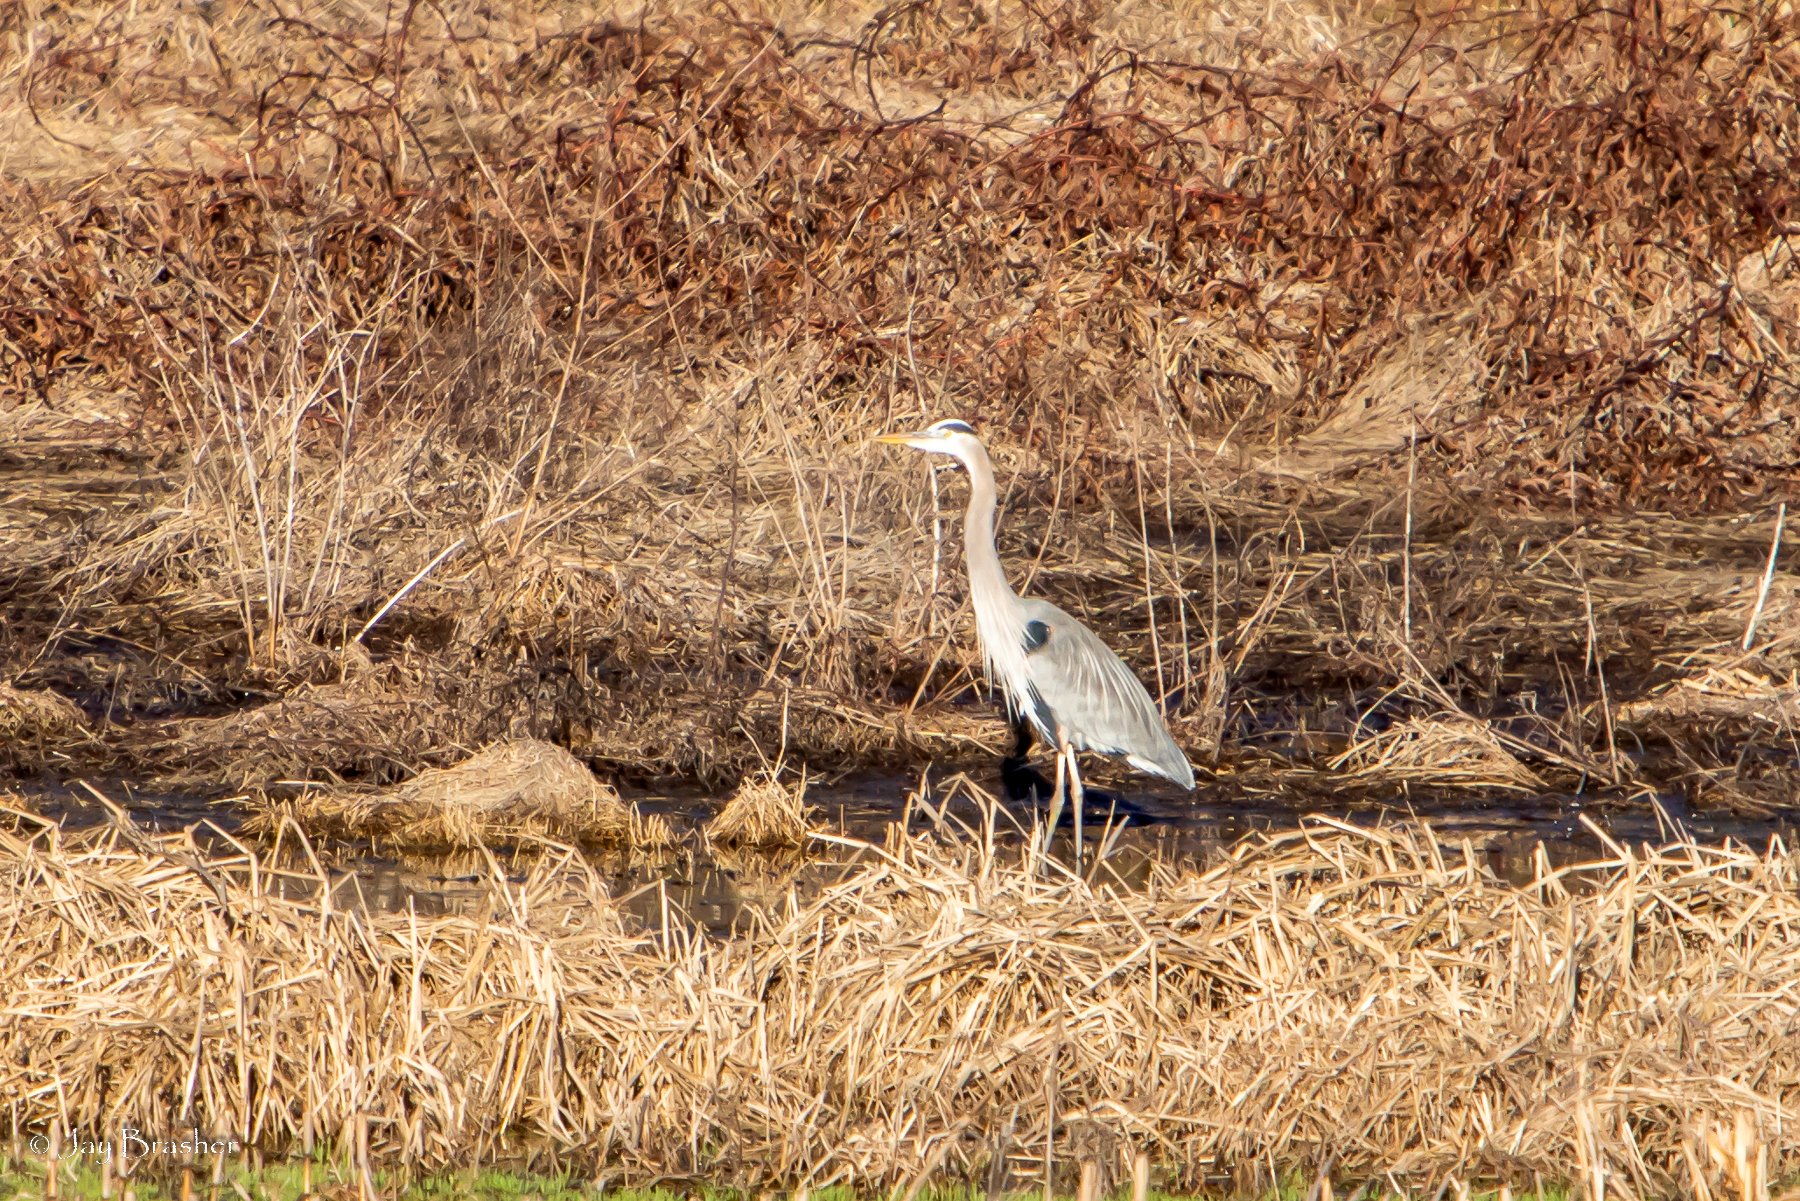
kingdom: Animalia
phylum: Chordata
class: Aves
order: Pelecaniformes
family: Ardeidae
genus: Ardea
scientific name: Ardea herodias
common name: Great blue heron
